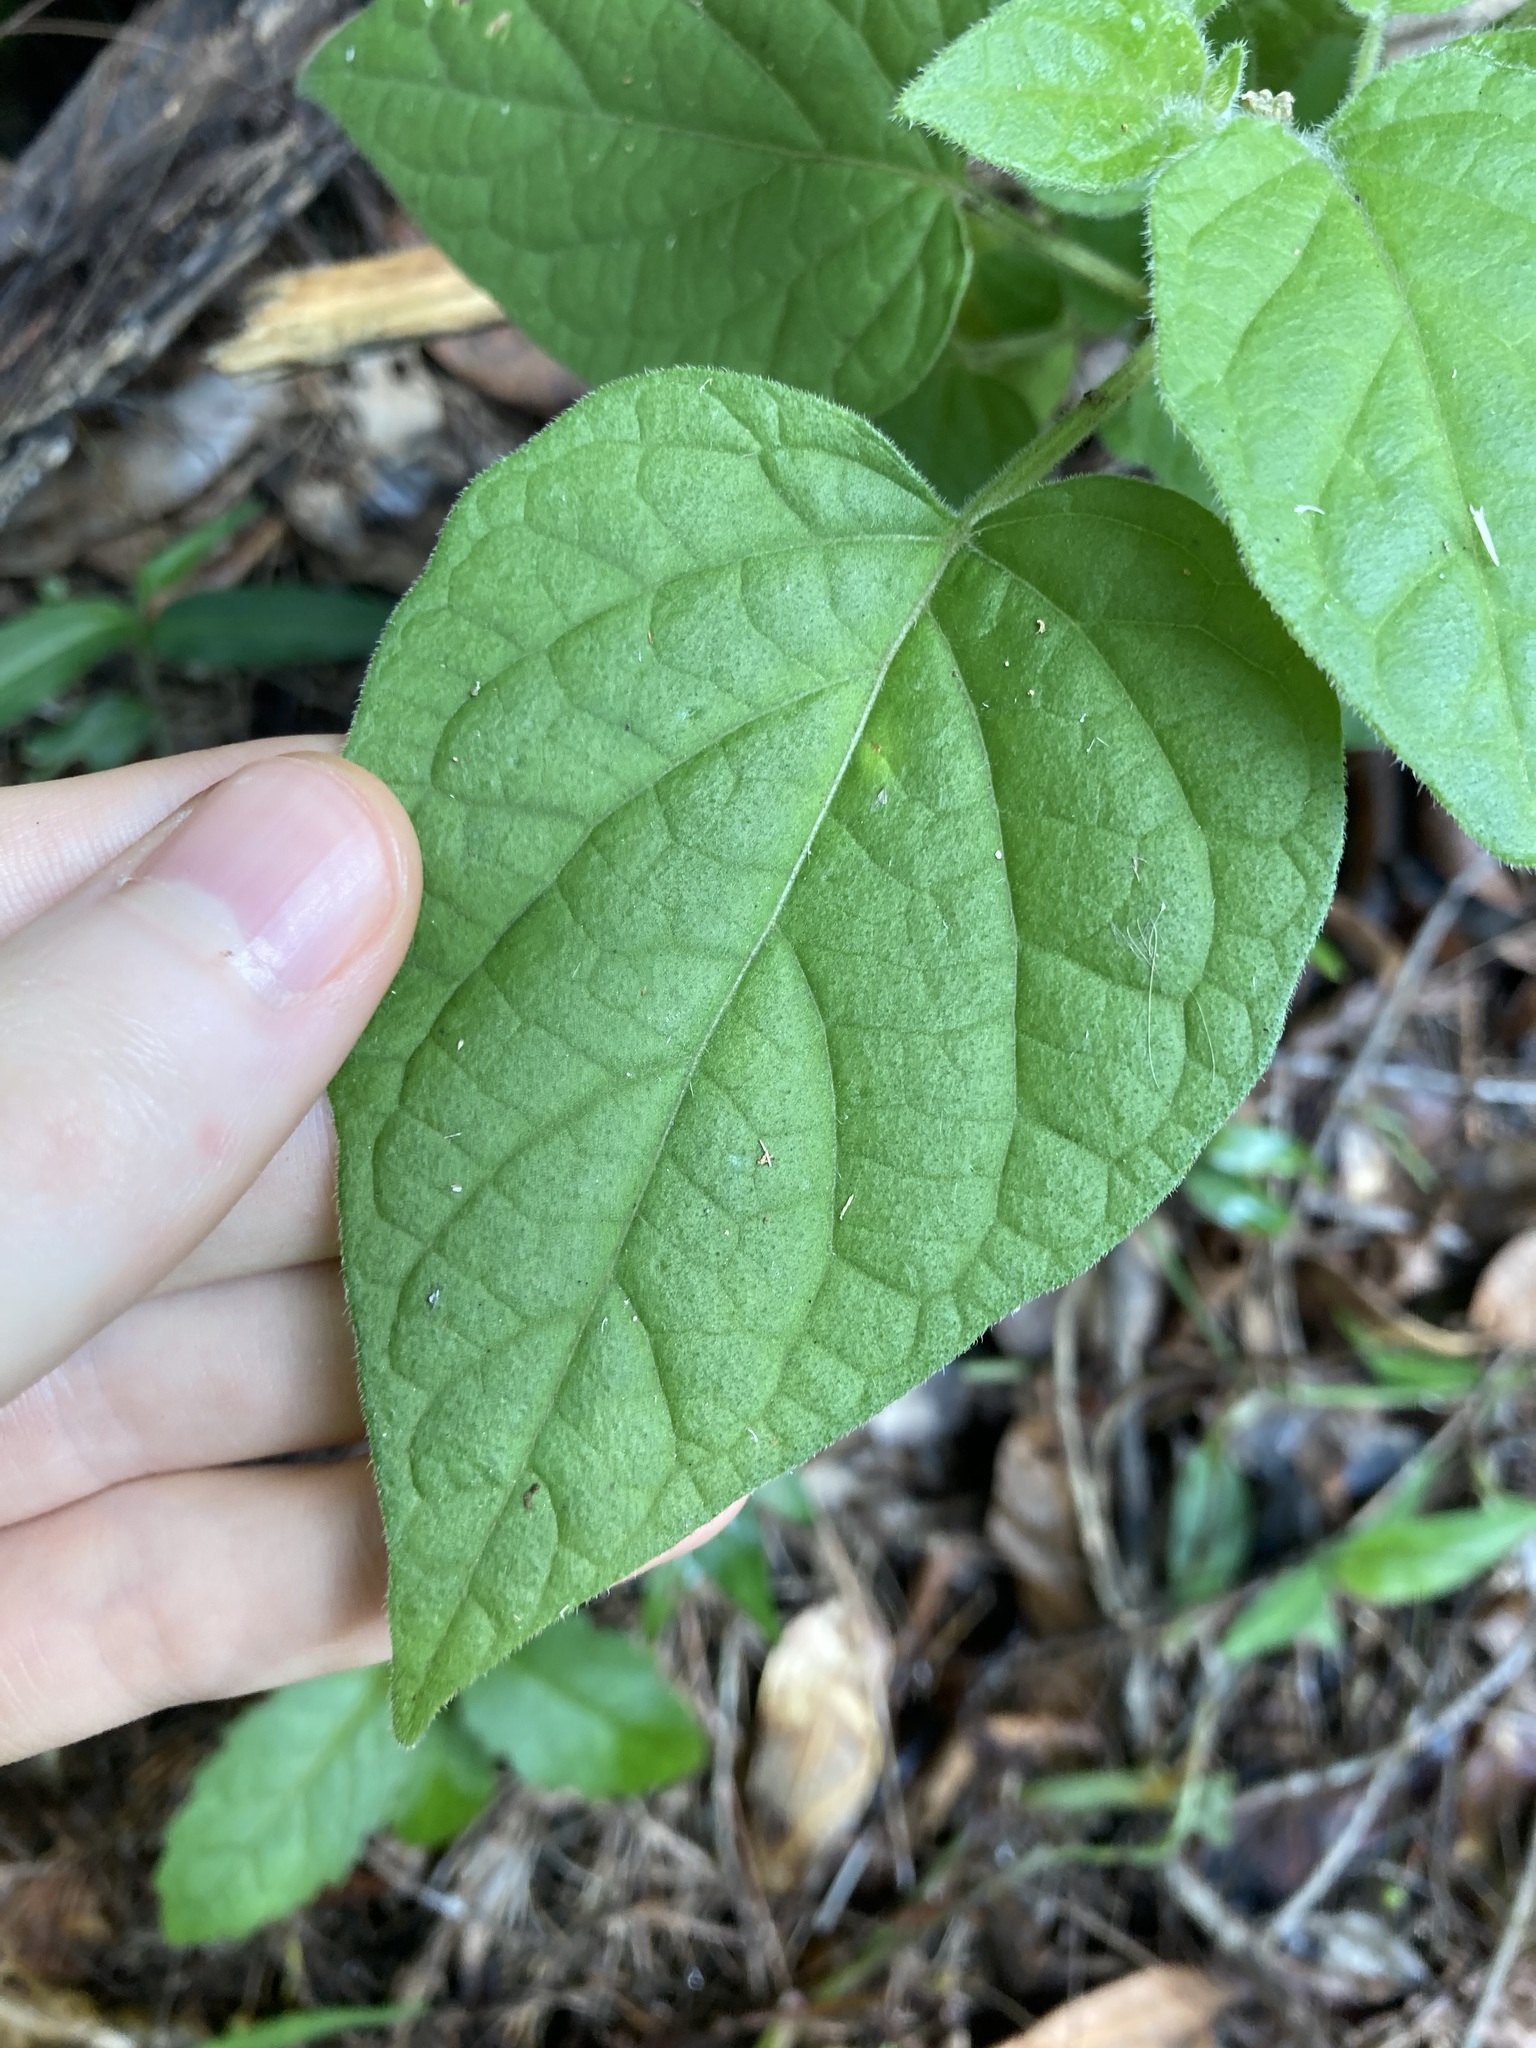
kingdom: Plantae
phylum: Tracheophyta
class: Magnoliopsida
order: Solanales
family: Solanaceae
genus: Physalis
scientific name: Physalis peruviana
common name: Cape-gooseberry
